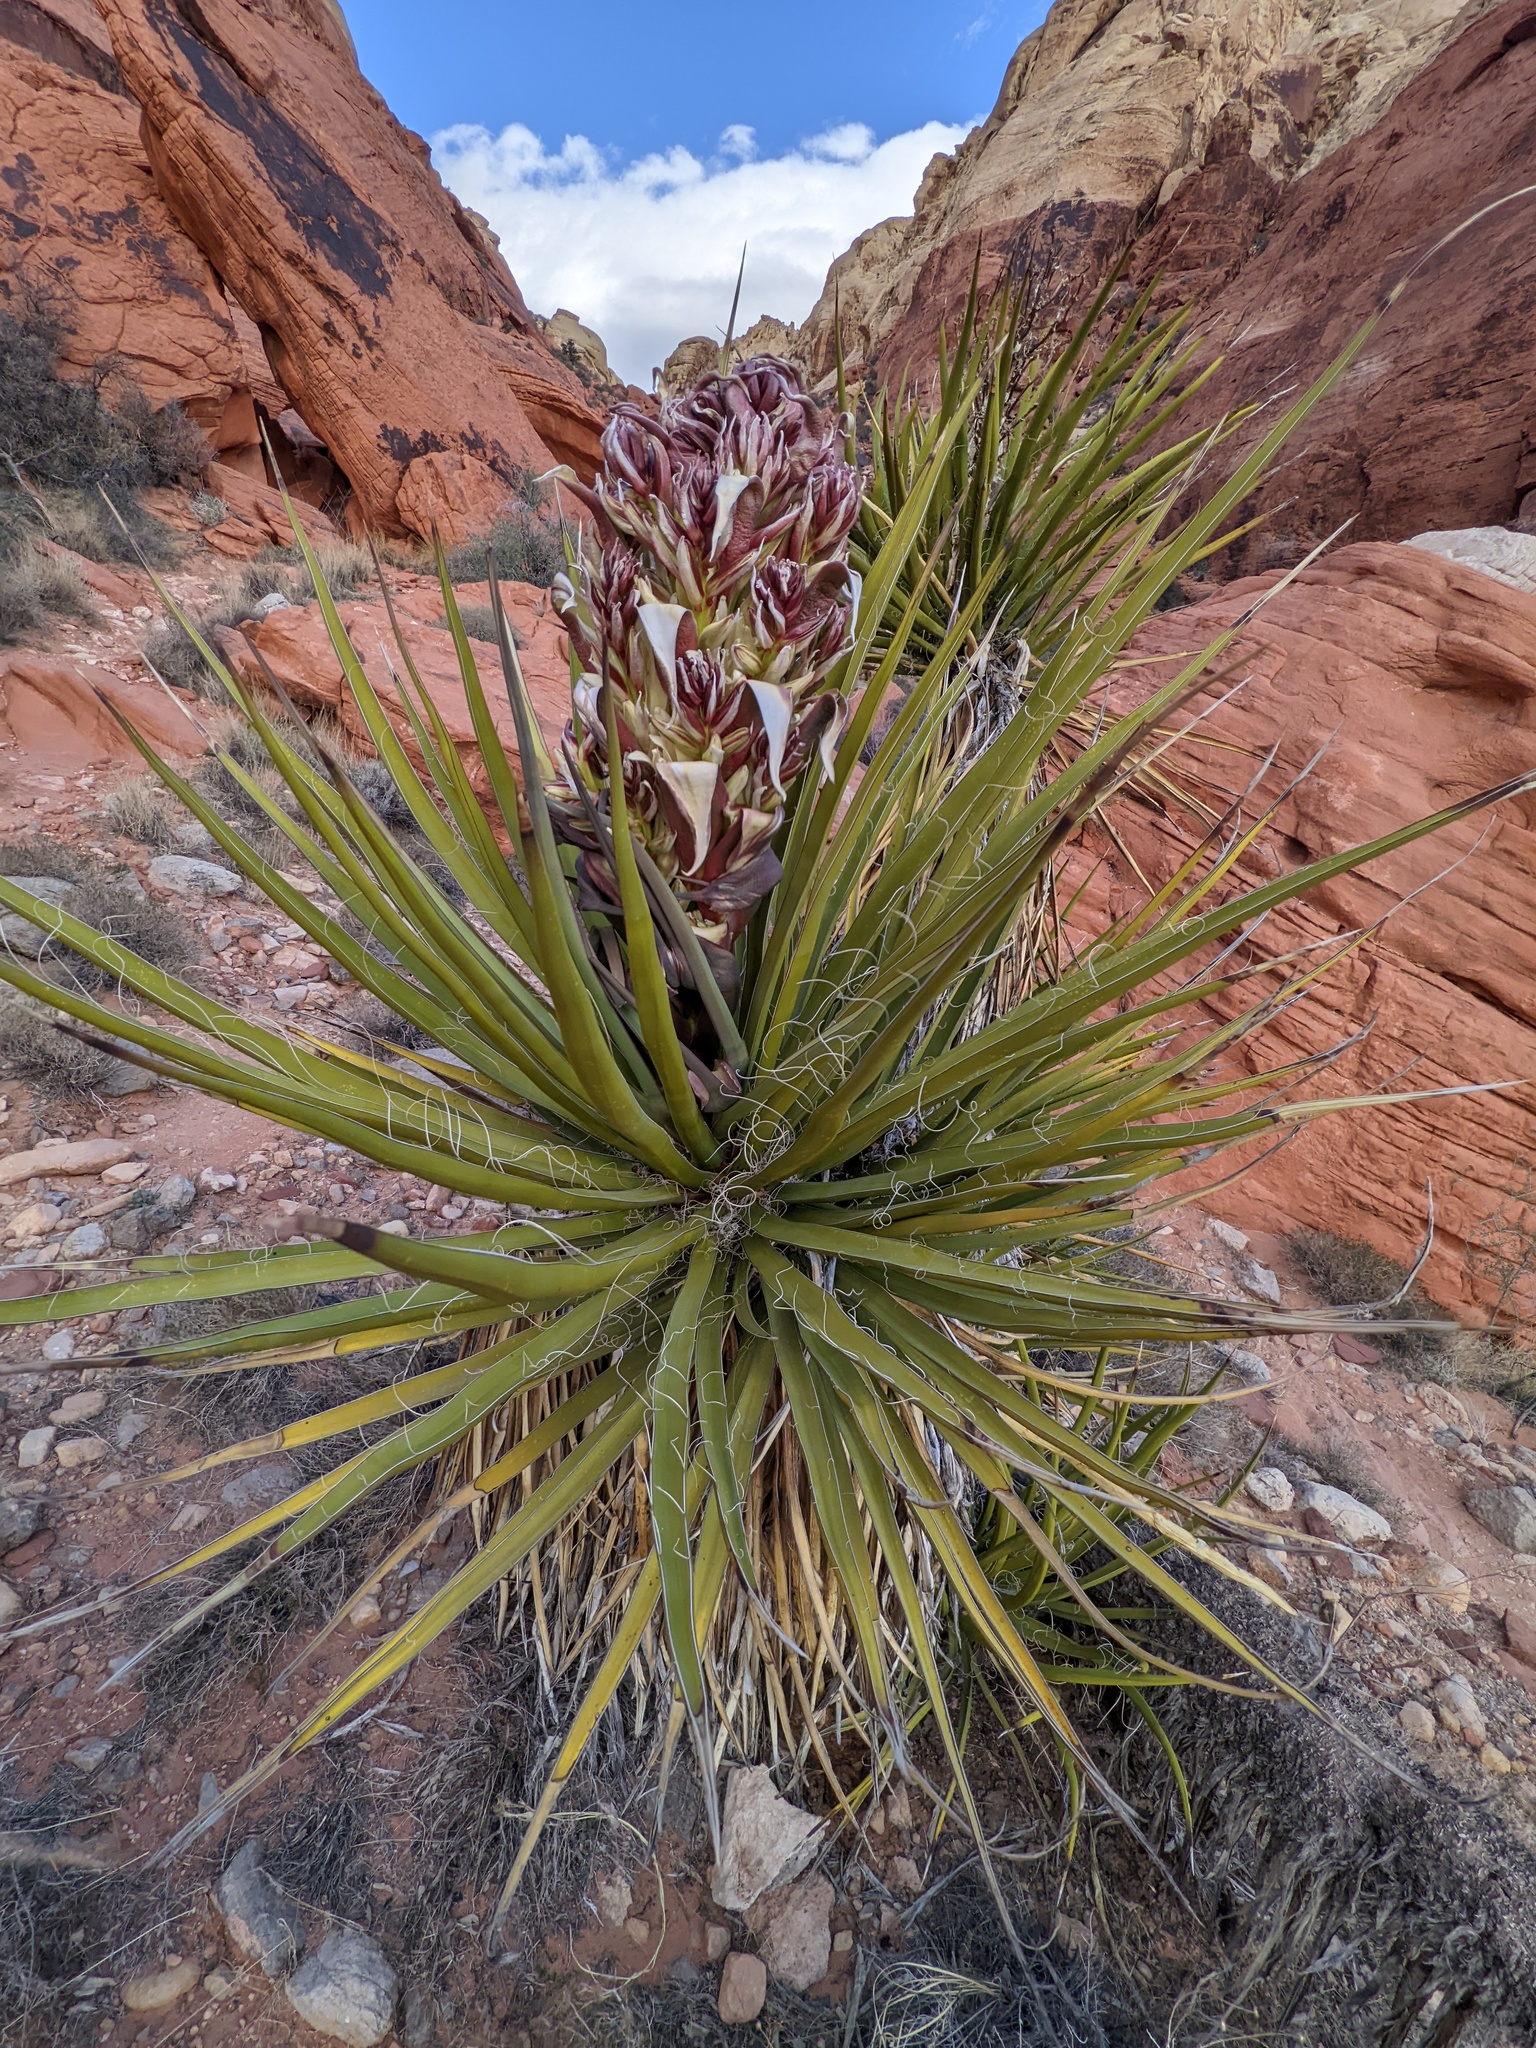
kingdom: Plantae
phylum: Tracheophyta
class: Liliopsida
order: Asparagales
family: Asparagaceae
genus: Yucca
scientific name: Yucca schidigera
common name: Mojave yucca
